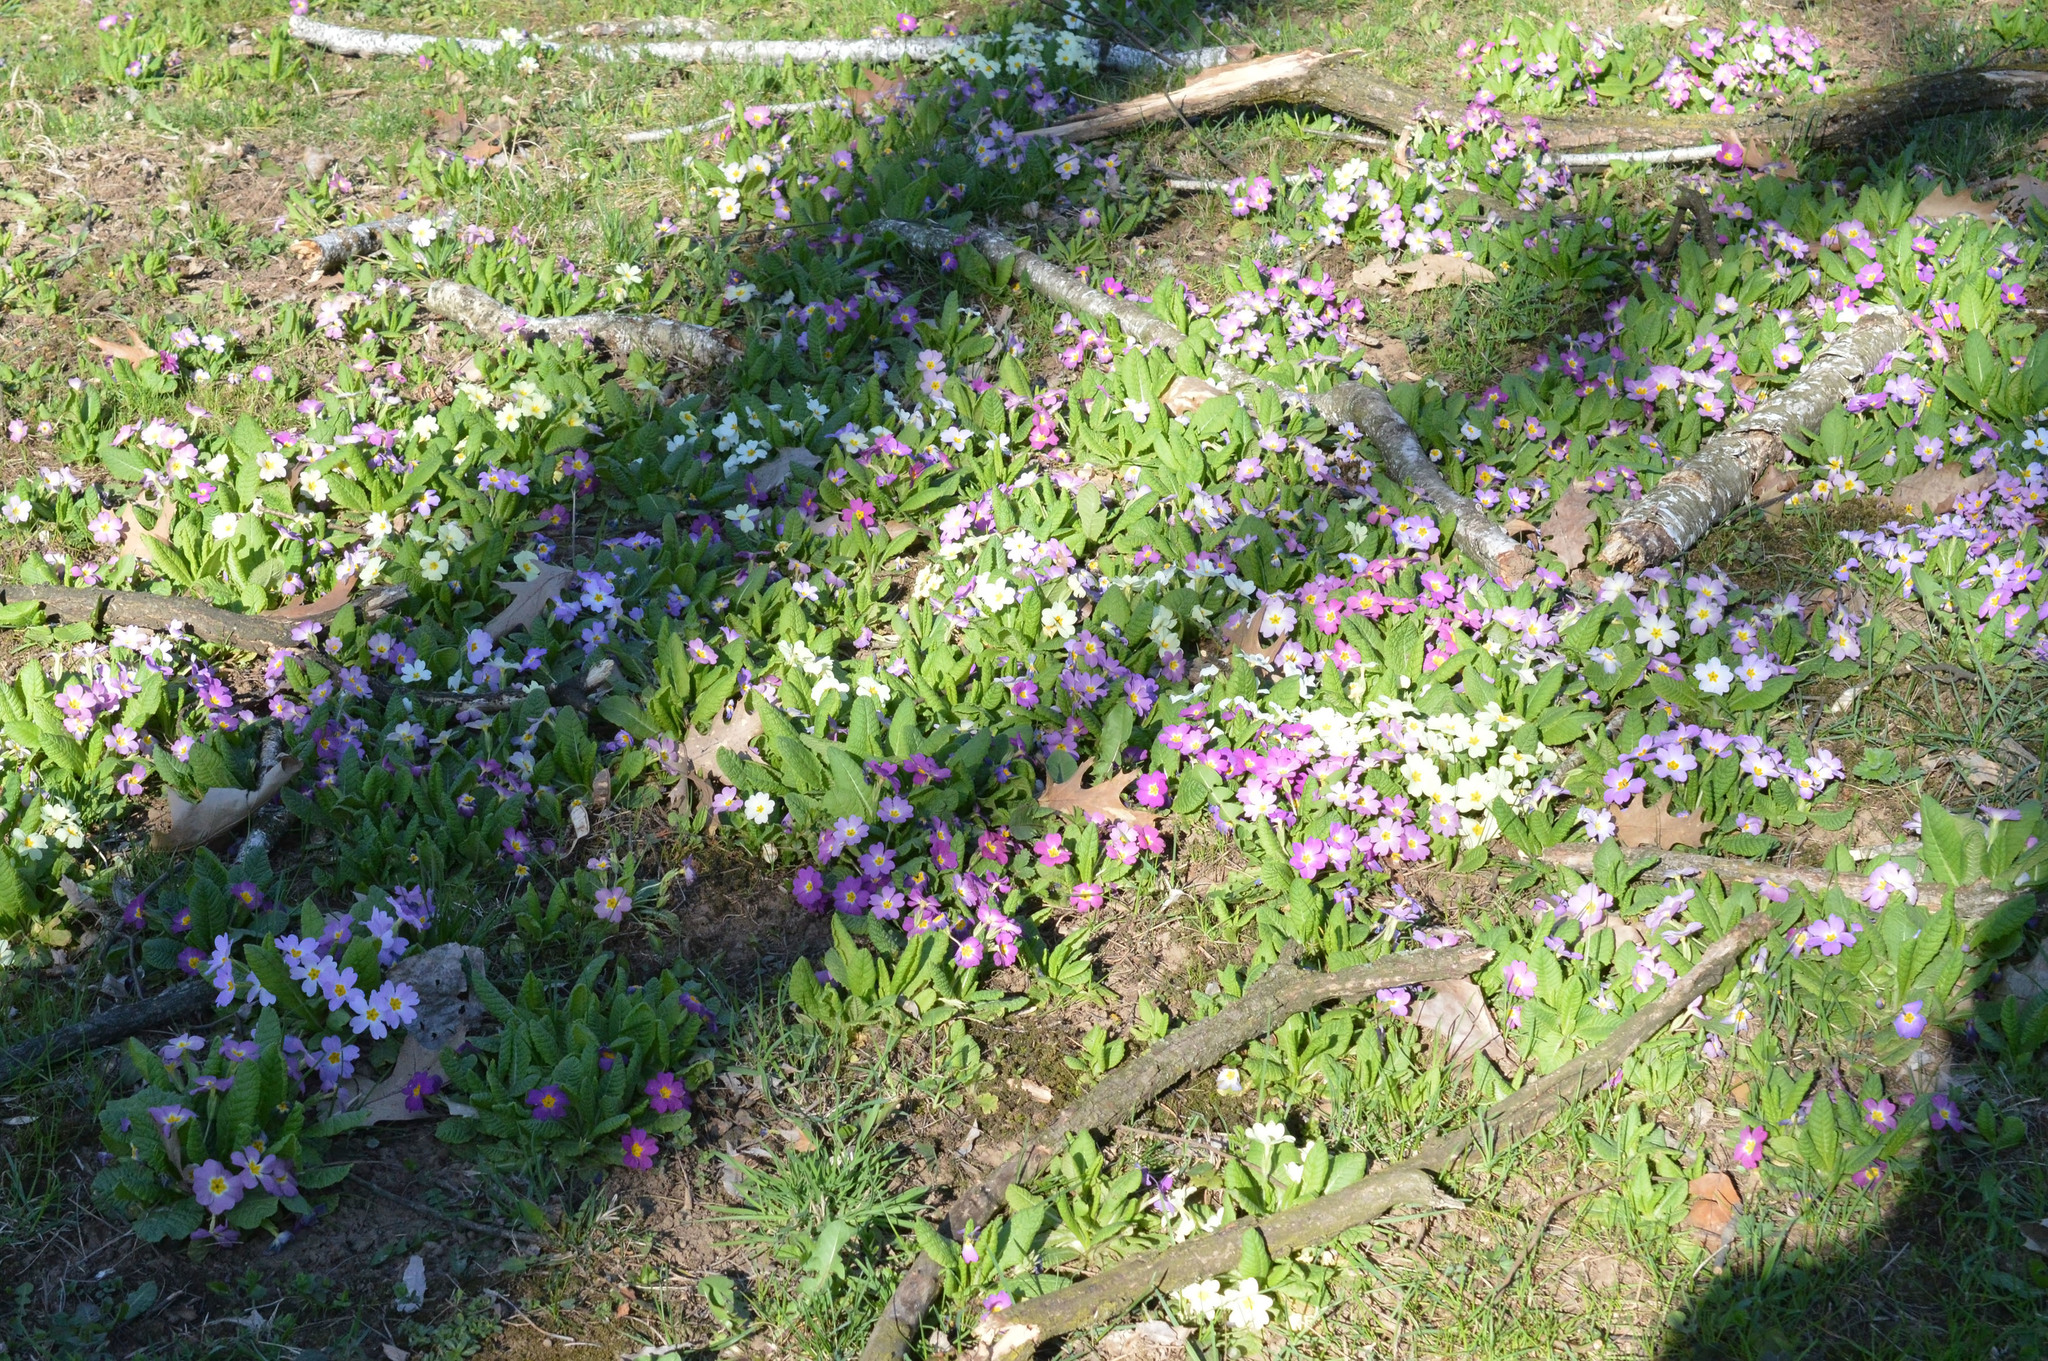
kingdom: Plantae
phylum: Tracheophyta
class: Magnoliopsida
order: Ericales
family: Primulaceae
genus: Primula
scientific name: Primula vulgaris
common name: Primrose
